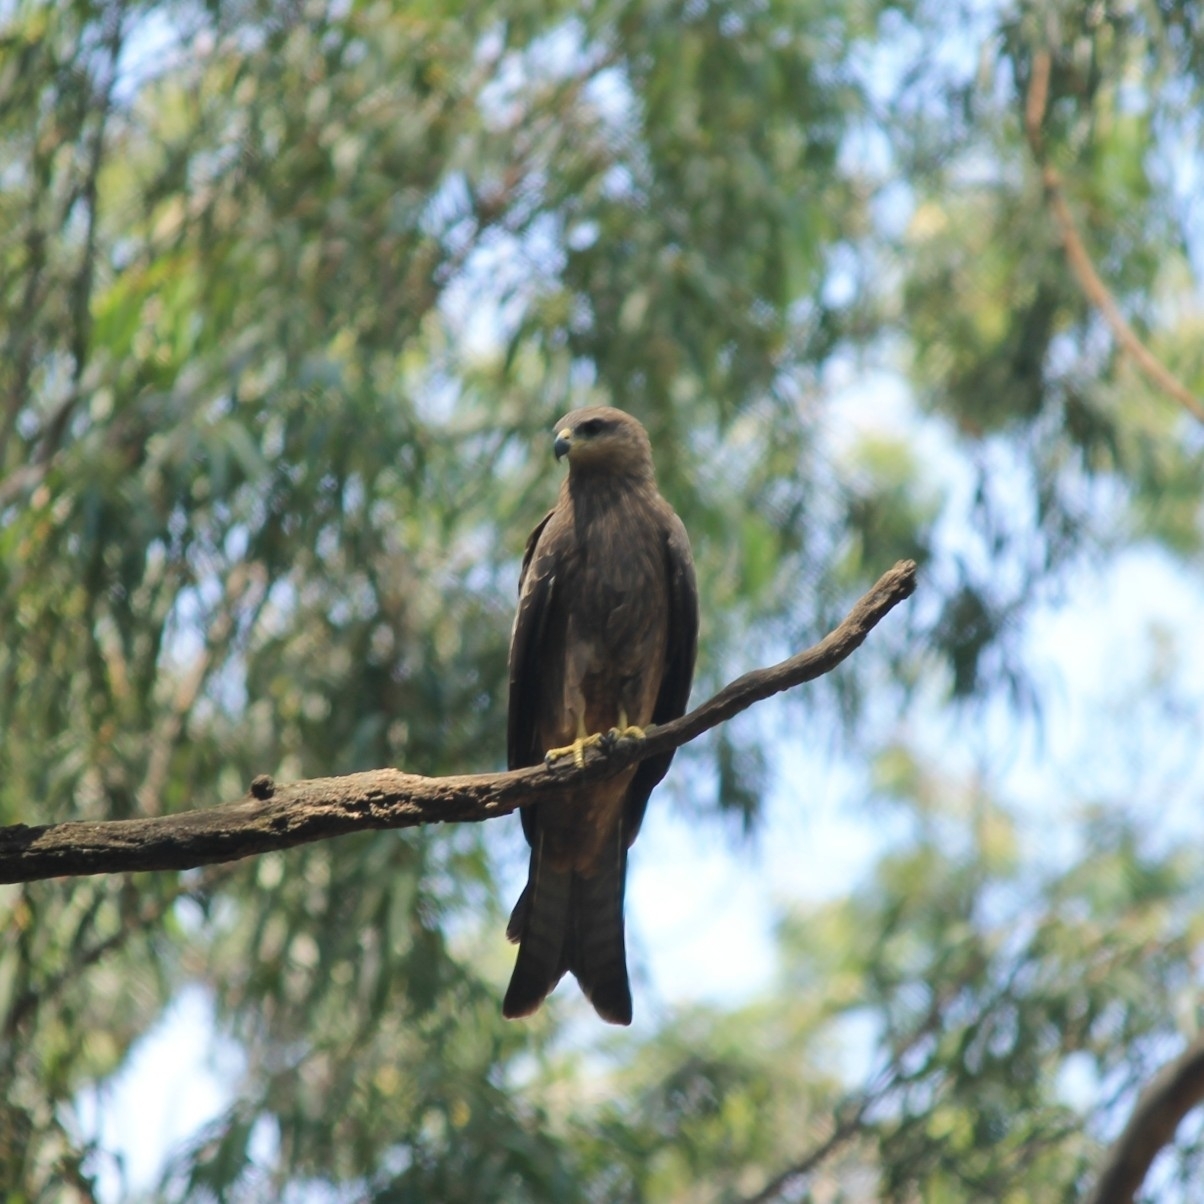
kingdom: Animalia
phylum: Chordata
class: Aves
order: Accipitriformes
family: Accipitridae
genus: Milvus
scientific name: Milvus migrans
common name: Black kite
